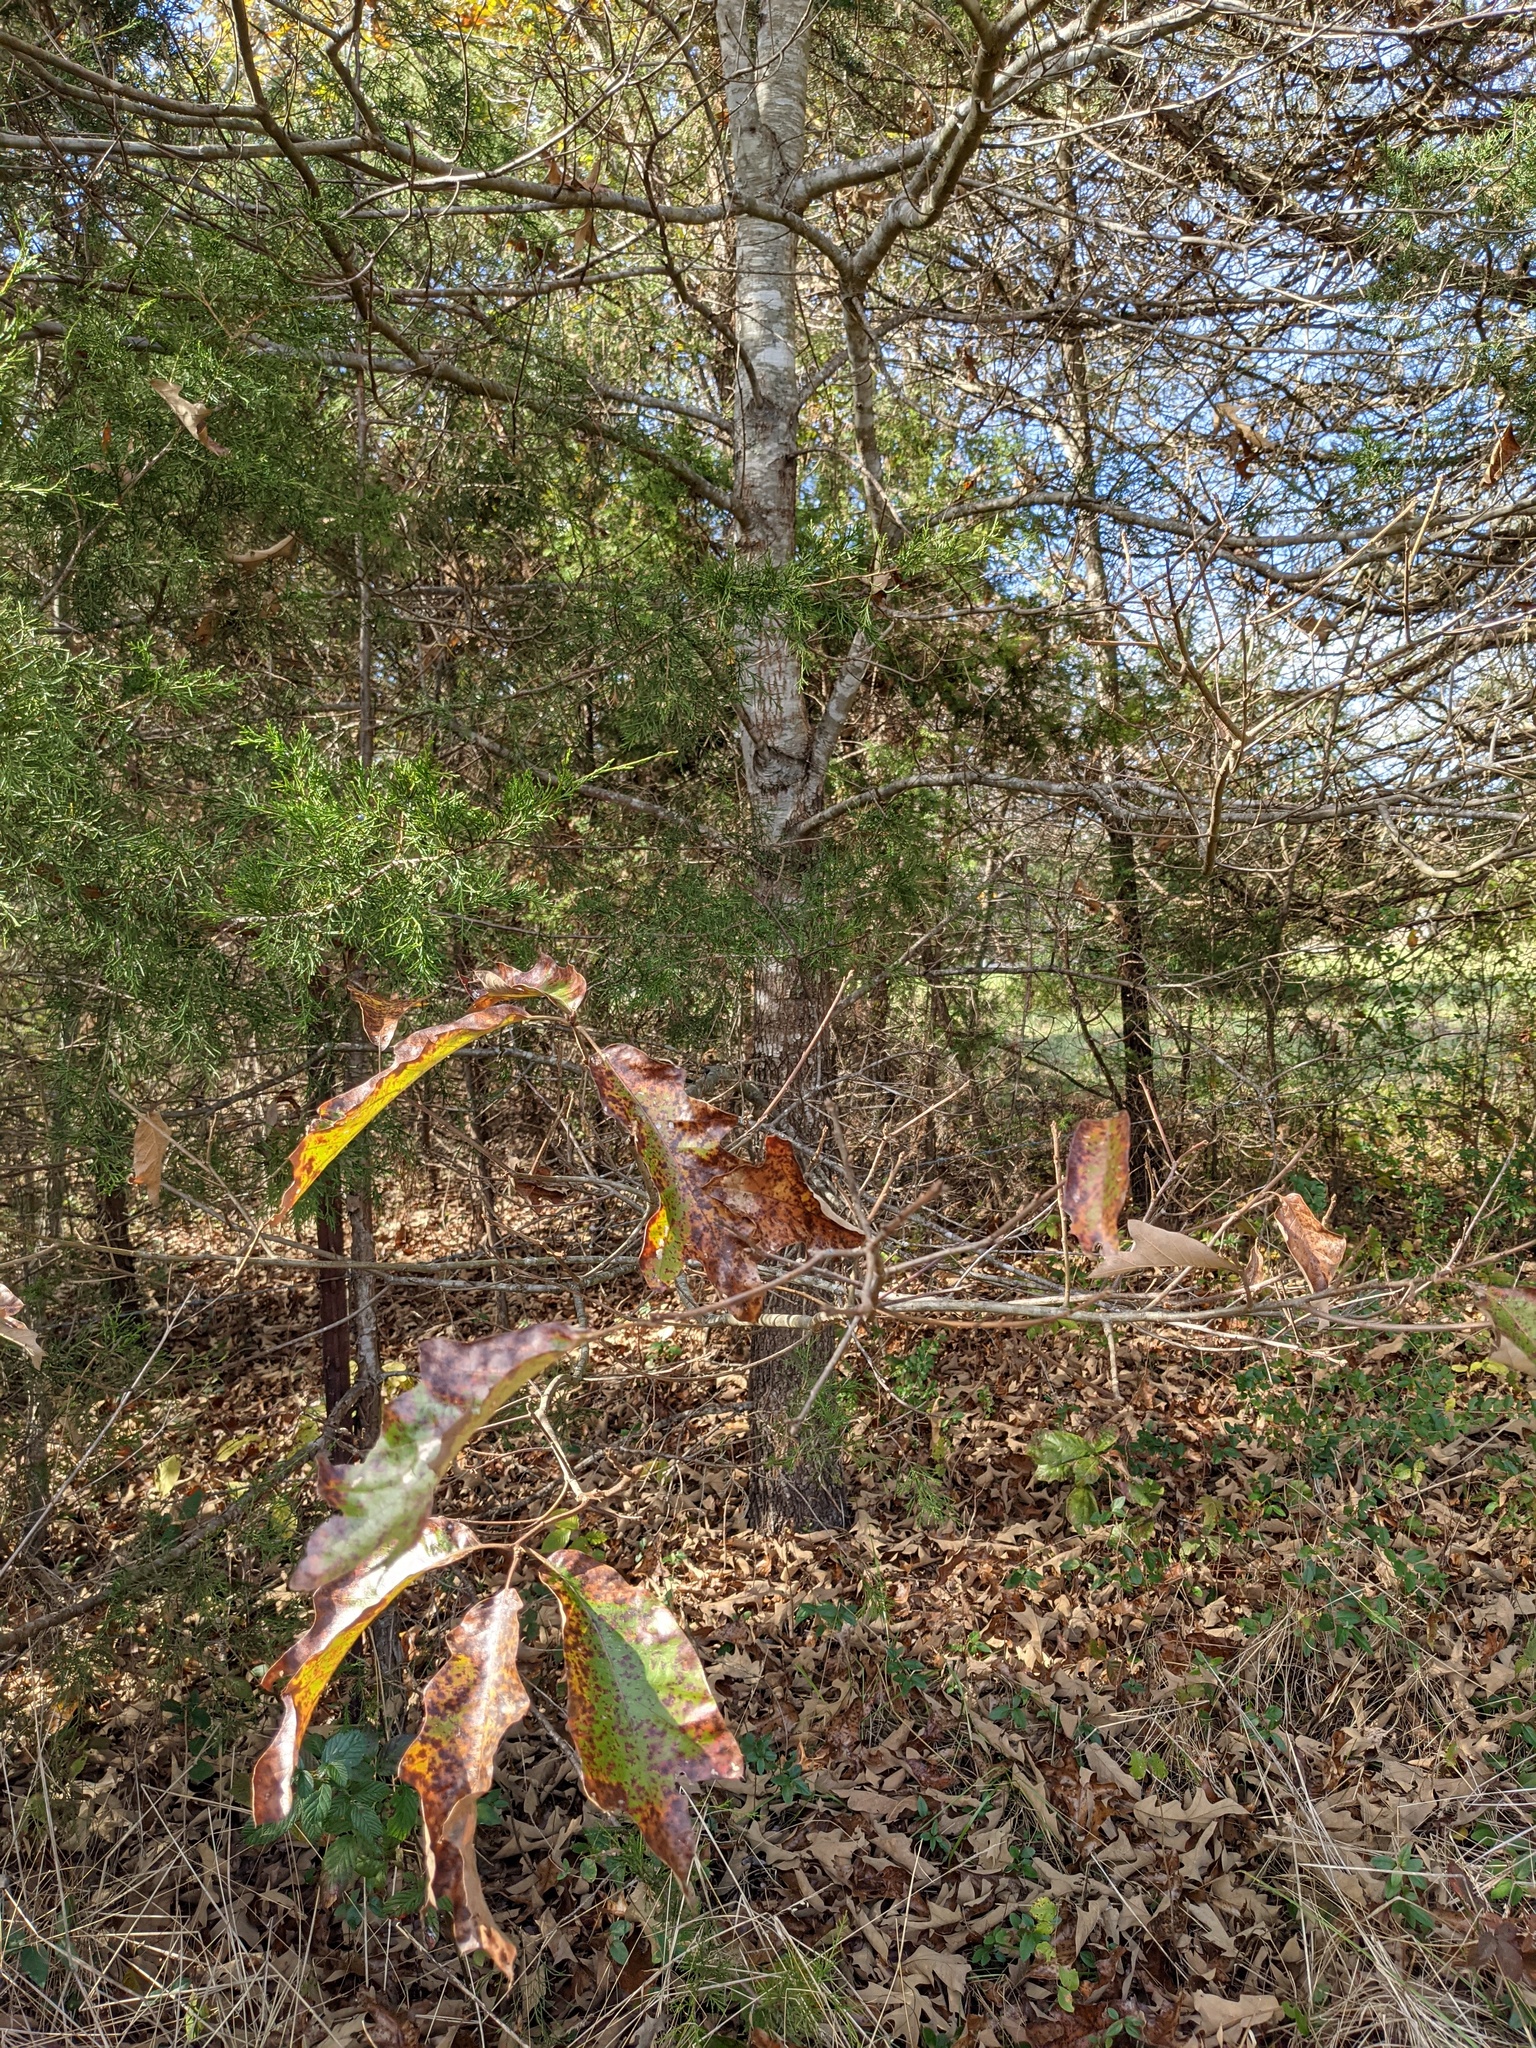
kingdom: Plantae
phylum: Tracheophyta
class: Magnoliopsida
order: Fagales
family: Fagaceae
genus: Quercus
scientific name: Quercus falcata
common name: Southern red oak
